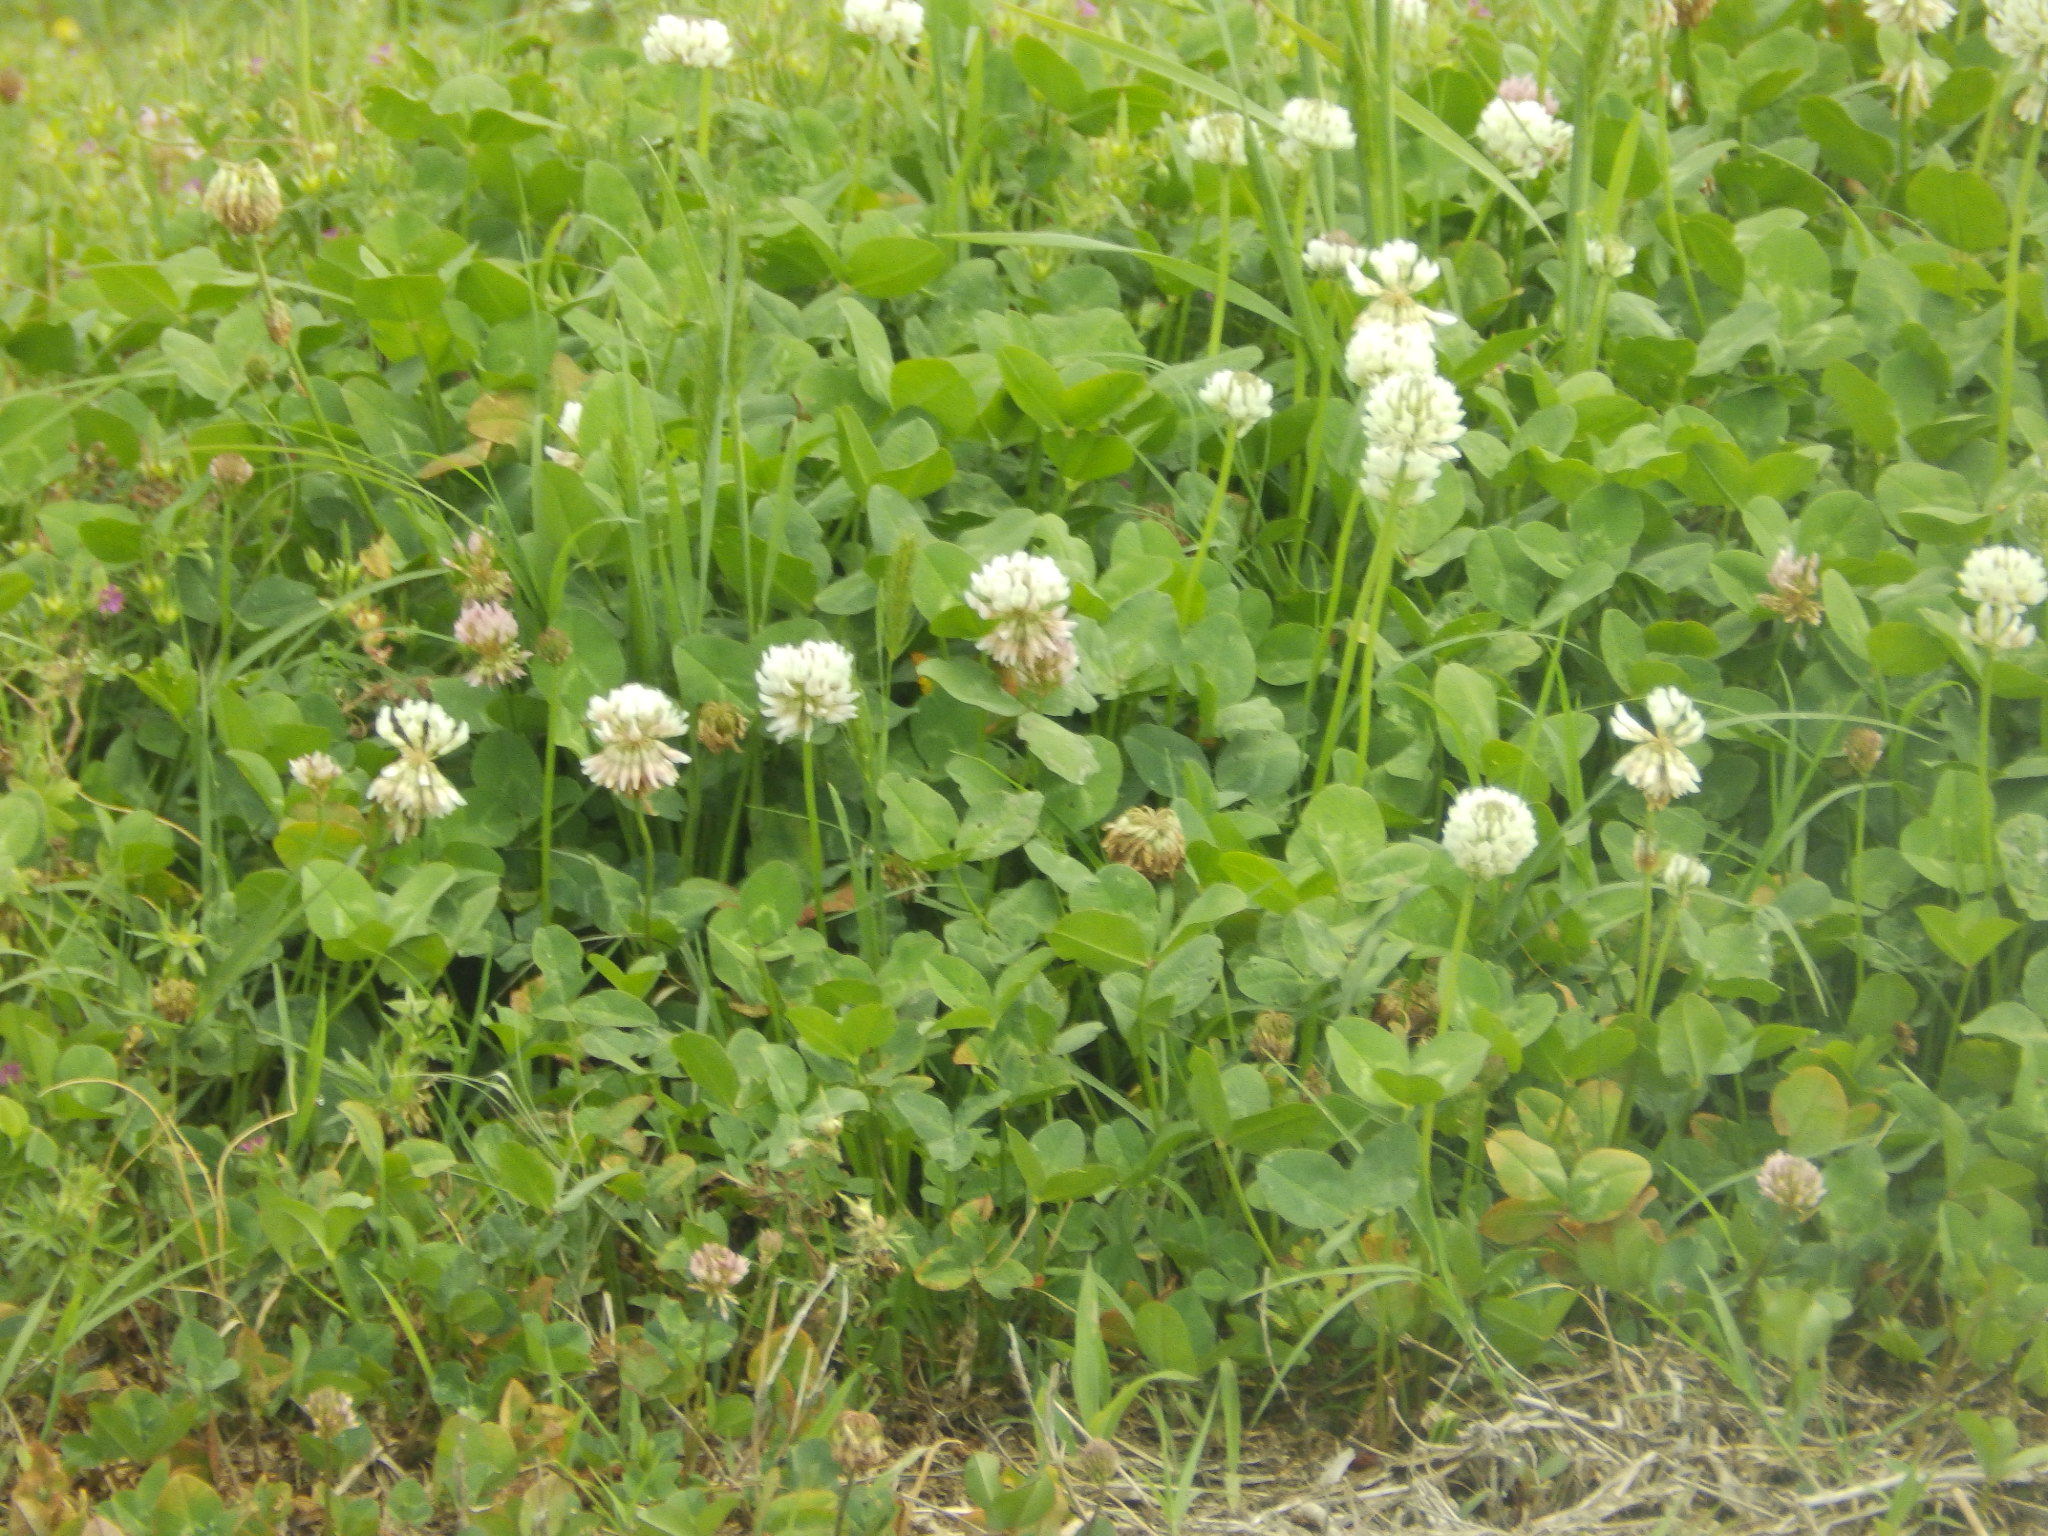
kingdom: Plantae
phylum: Tracheophyta
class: Magnoliopsida
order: Fabales
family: Fabaceae
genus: Trifolium
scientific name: Trifolium repens
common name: White clover
